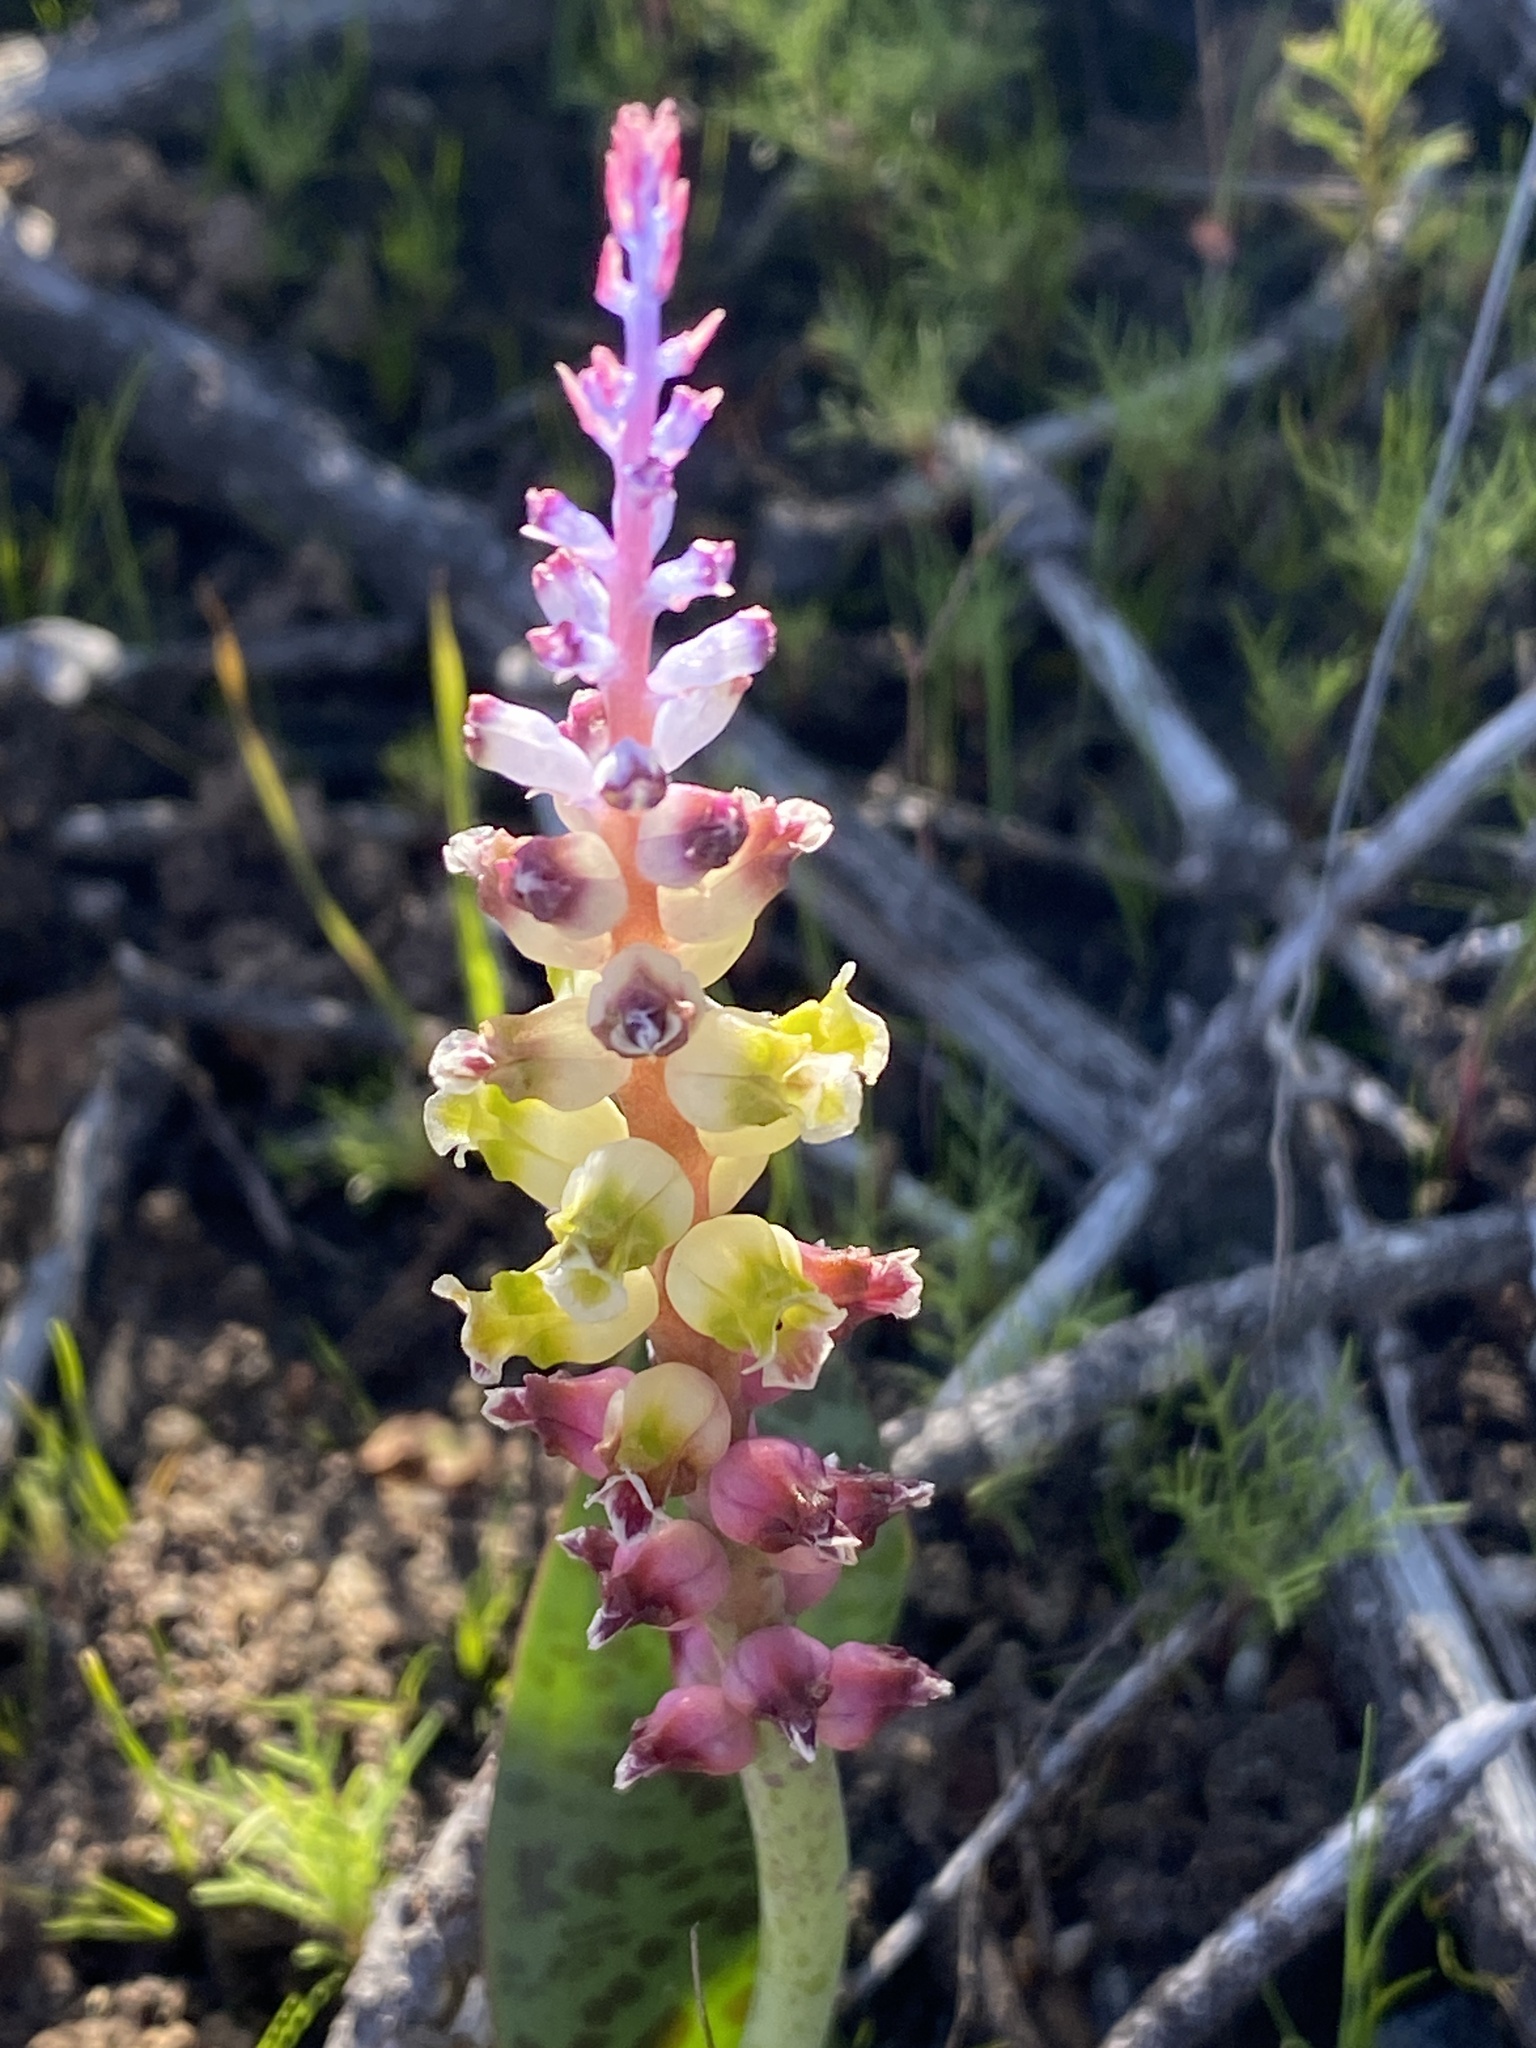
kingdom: Plantae
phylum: Tracheophyta
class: Liliopsida
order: Asparagales
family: Asparagaceae
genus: Lachenalia
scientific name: Lachenalia membranacea
